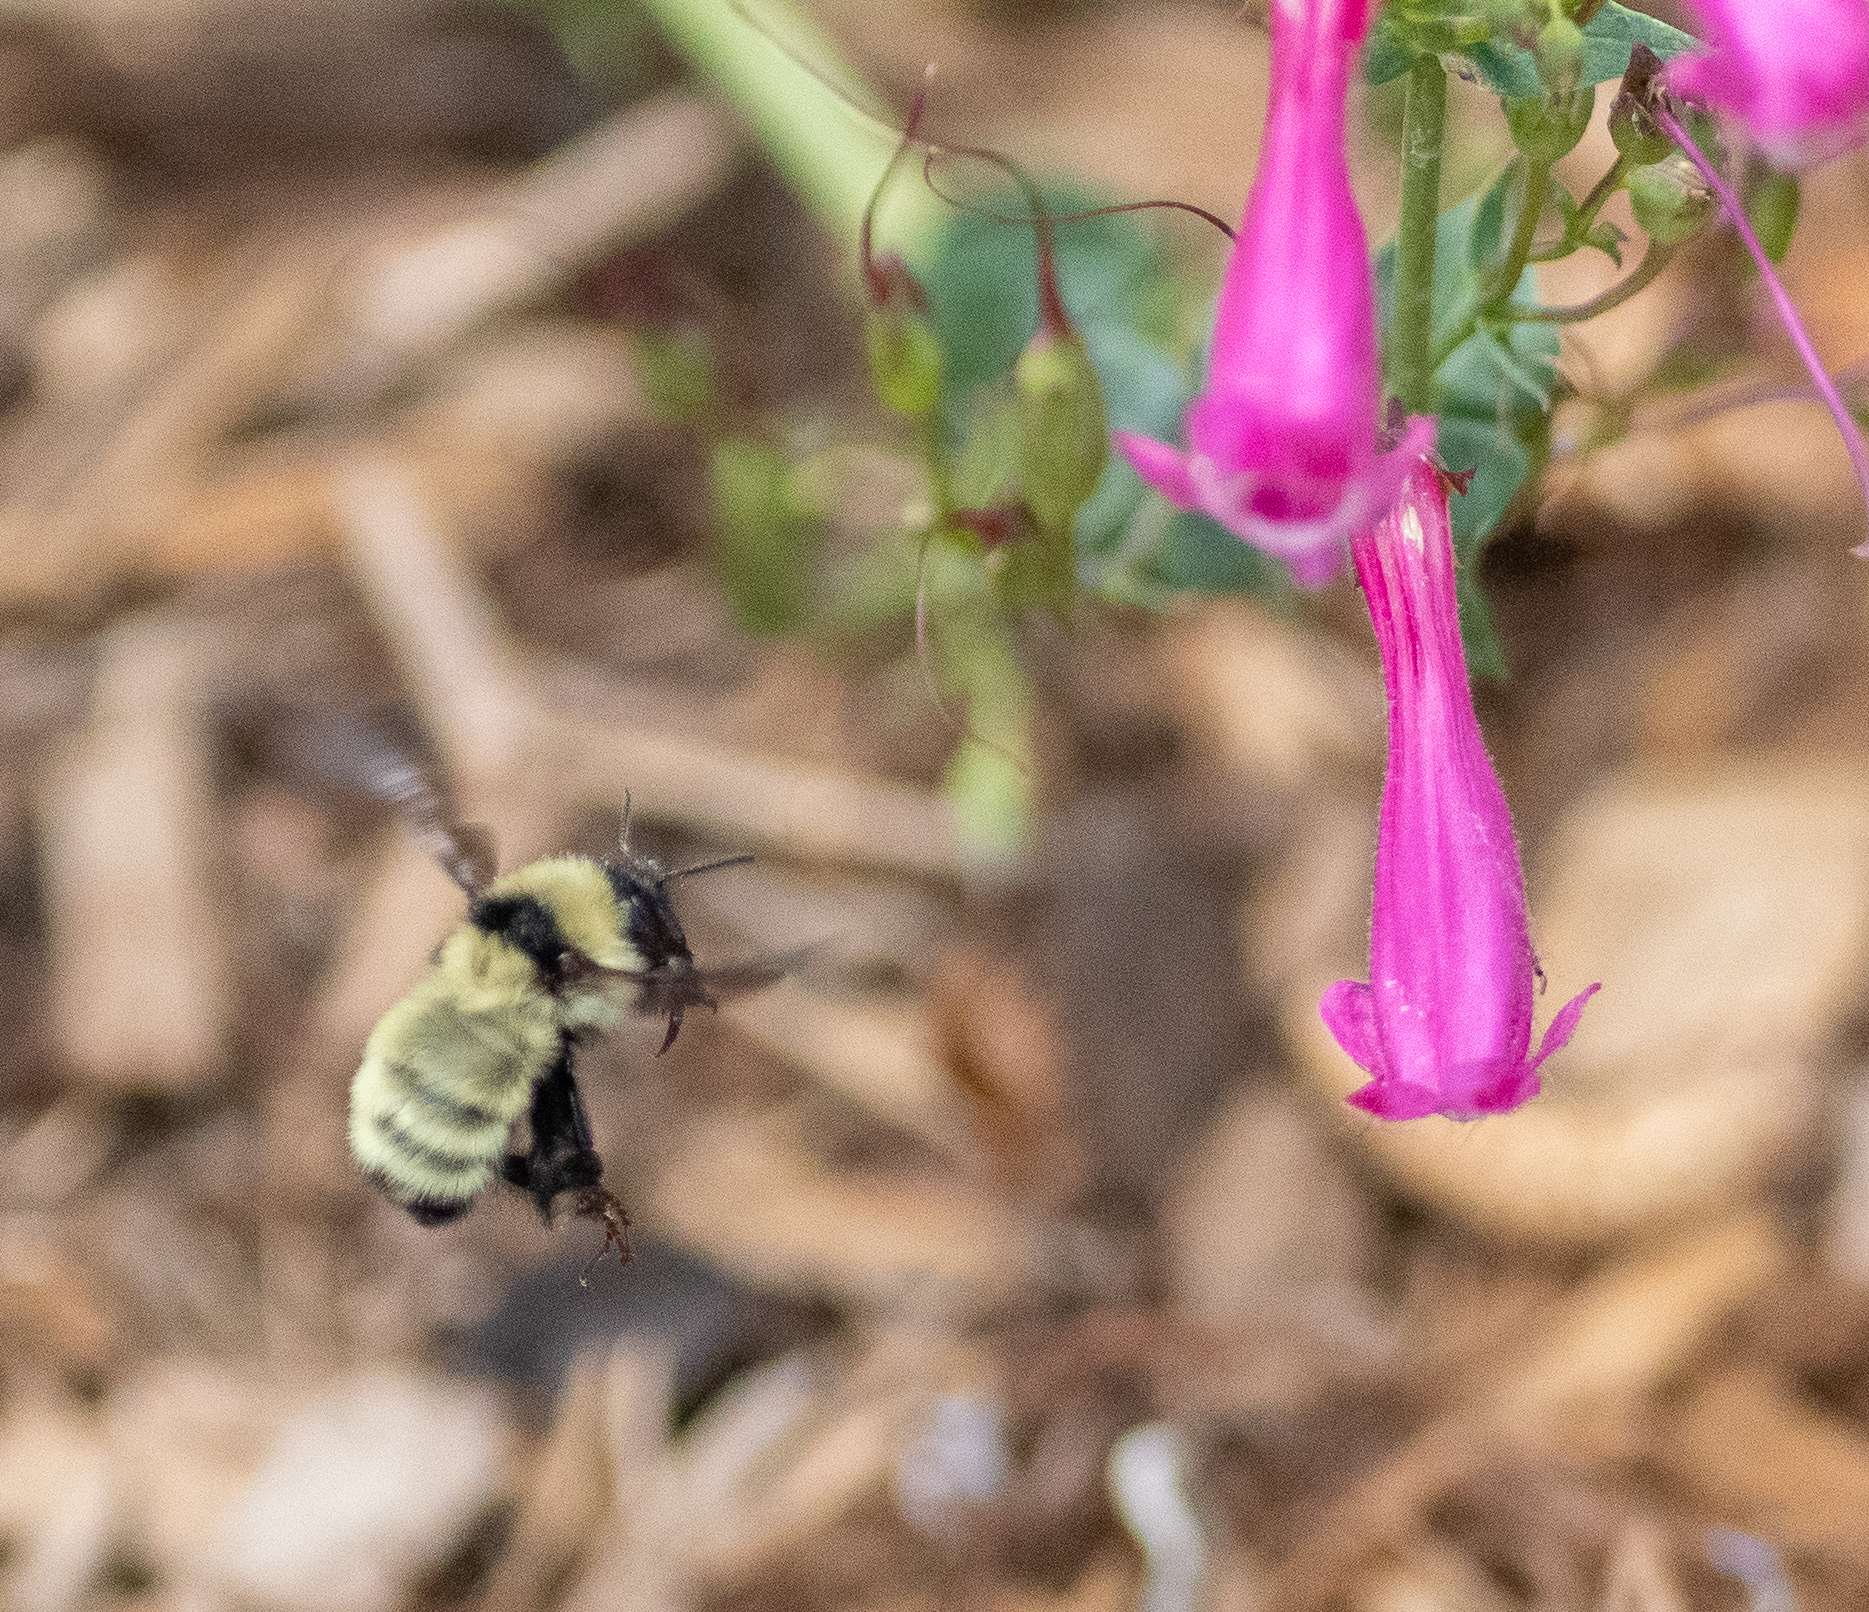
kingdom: Animalia
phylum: Arthropoda
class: Insecta
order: Hymenoptera
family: Apidae
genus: Bombus
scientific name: Bombus fervidus
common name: Yellow bumble bee
